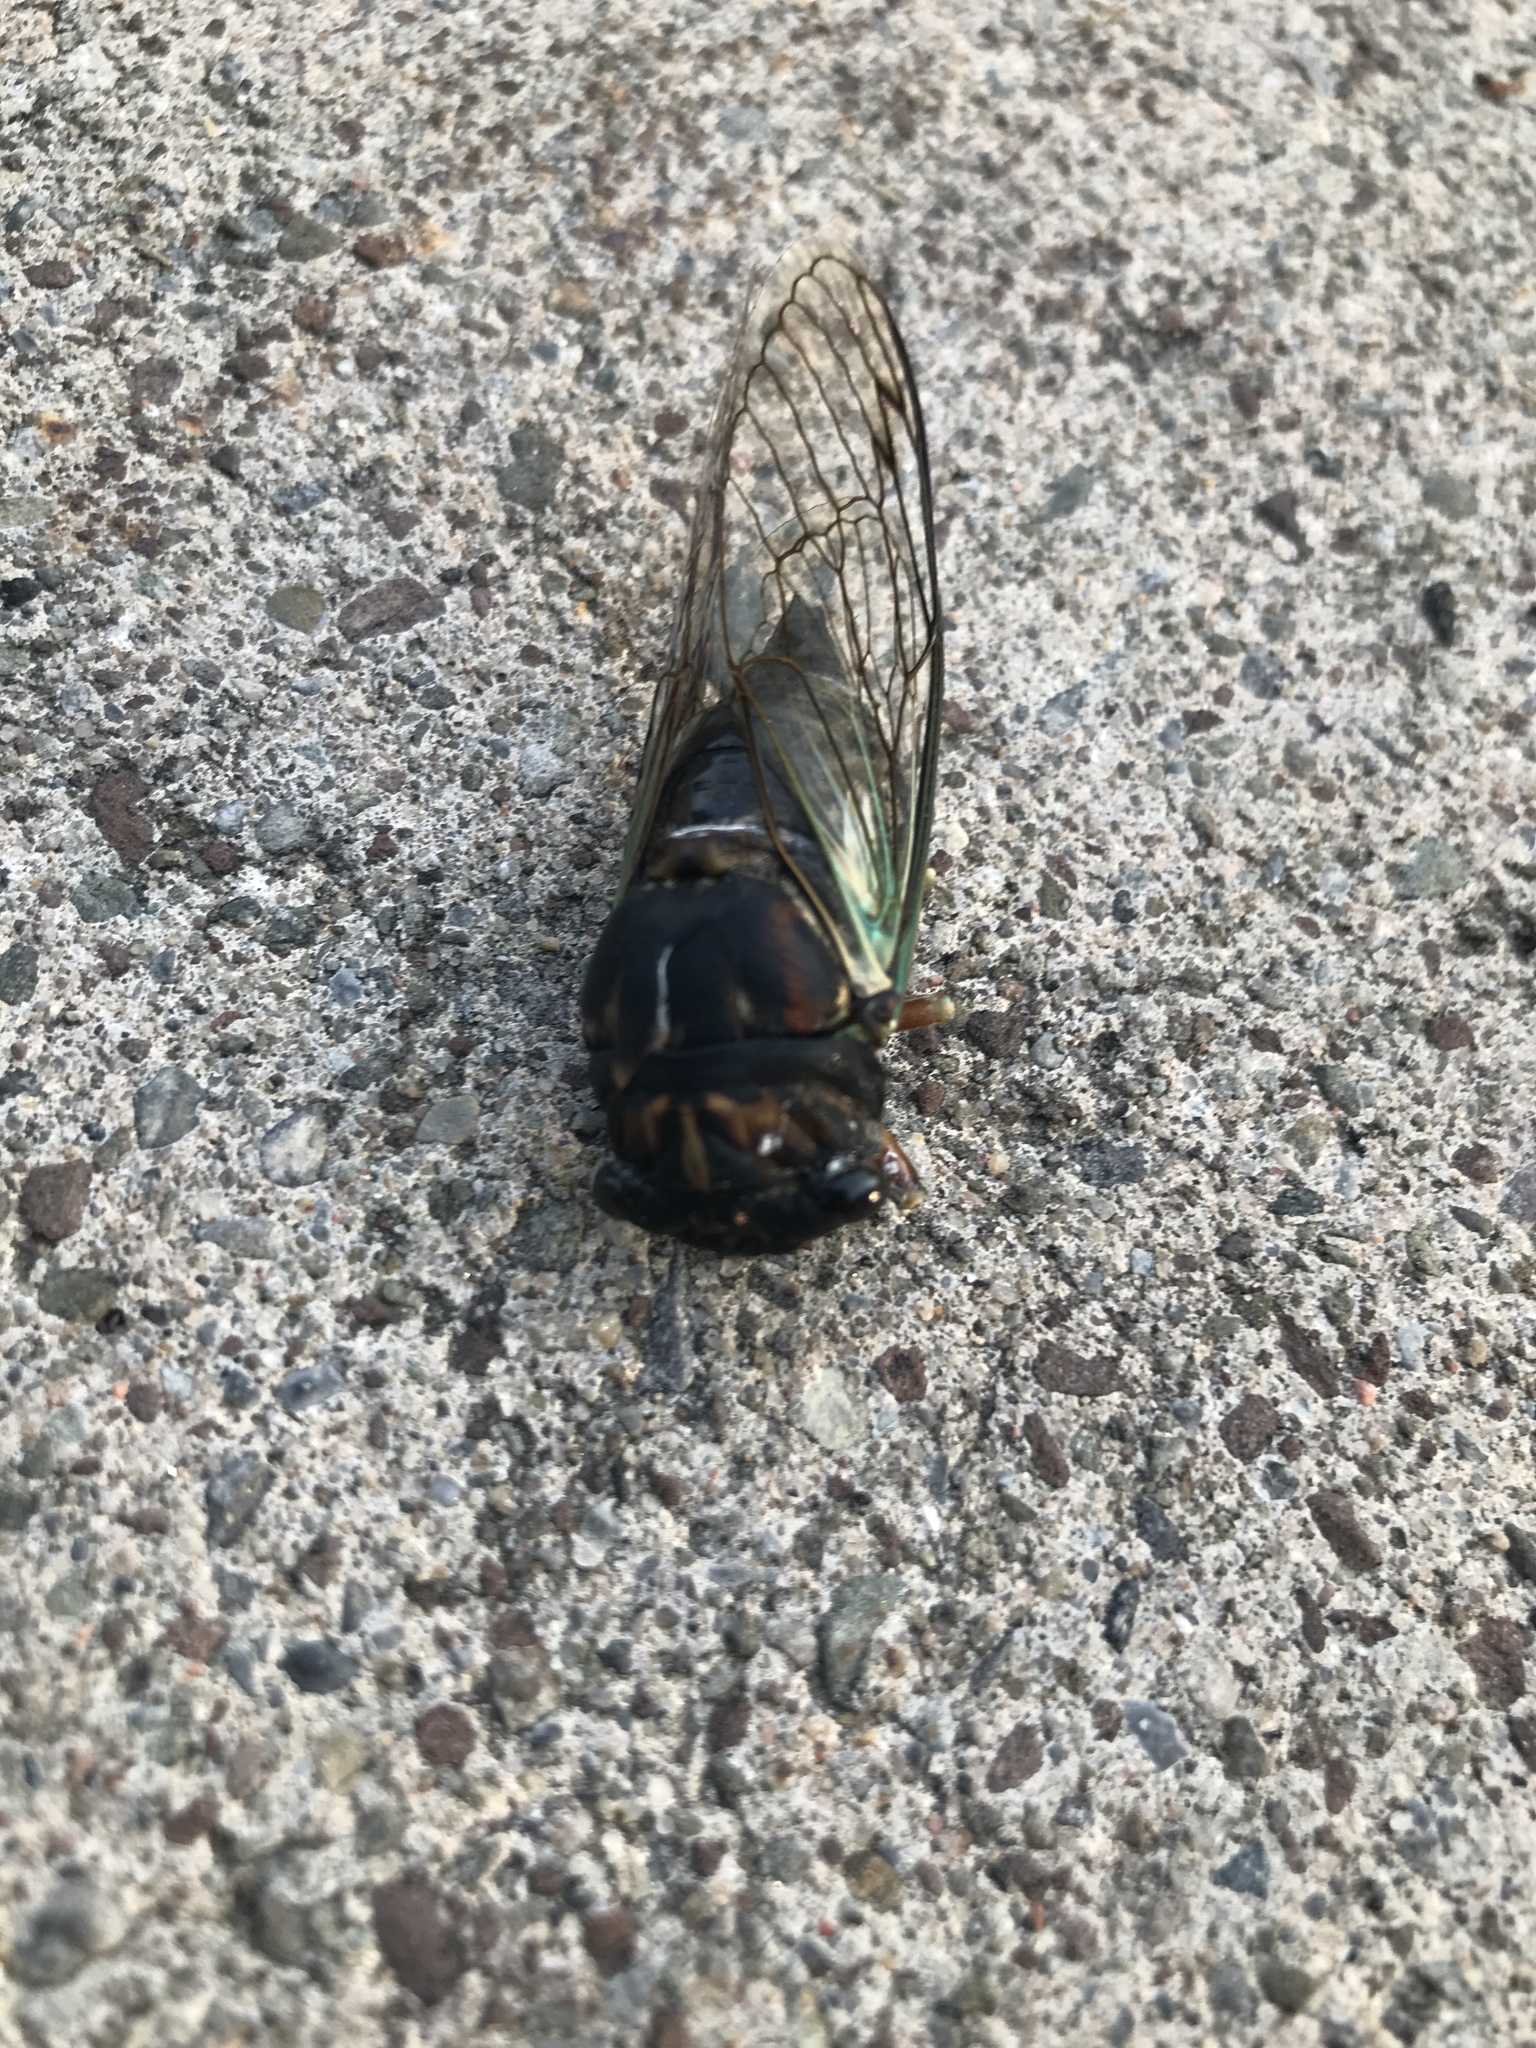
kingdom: Animalia
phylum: Arthropoda
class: Insecta
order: Hemiptera
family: Cicadidae
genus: Neotibicen
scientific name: Neotibicen lyricen
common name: Lyric cicada
